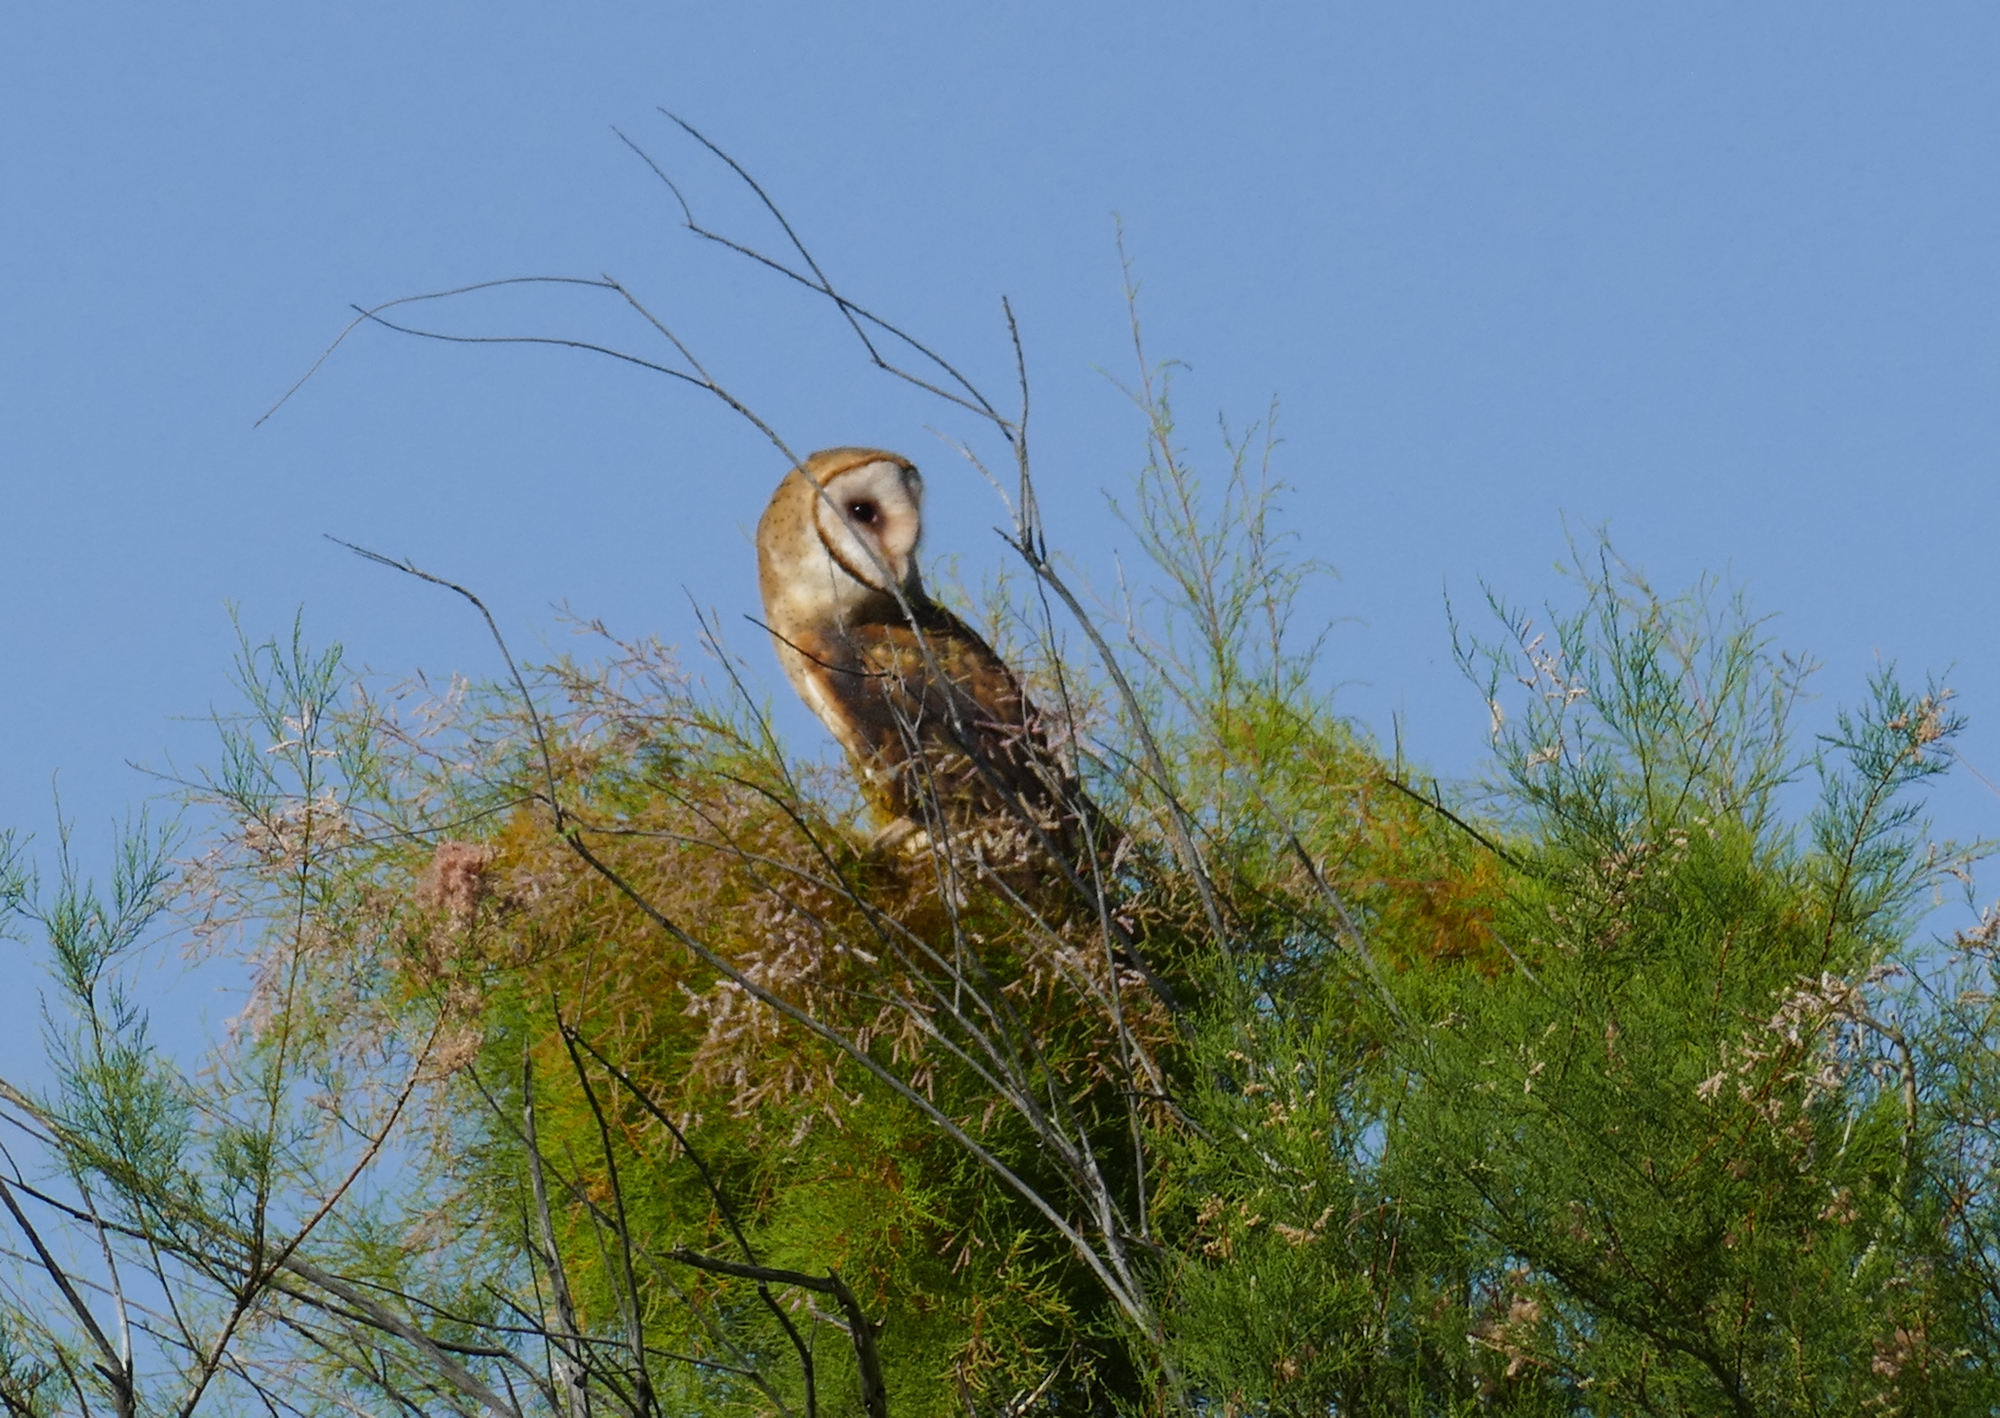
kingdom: Animalia
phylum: Chordata
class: Aves
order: Strigiformes
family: Tytonidae
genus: Tyto
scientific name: Tyto alba
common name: Barn owl
